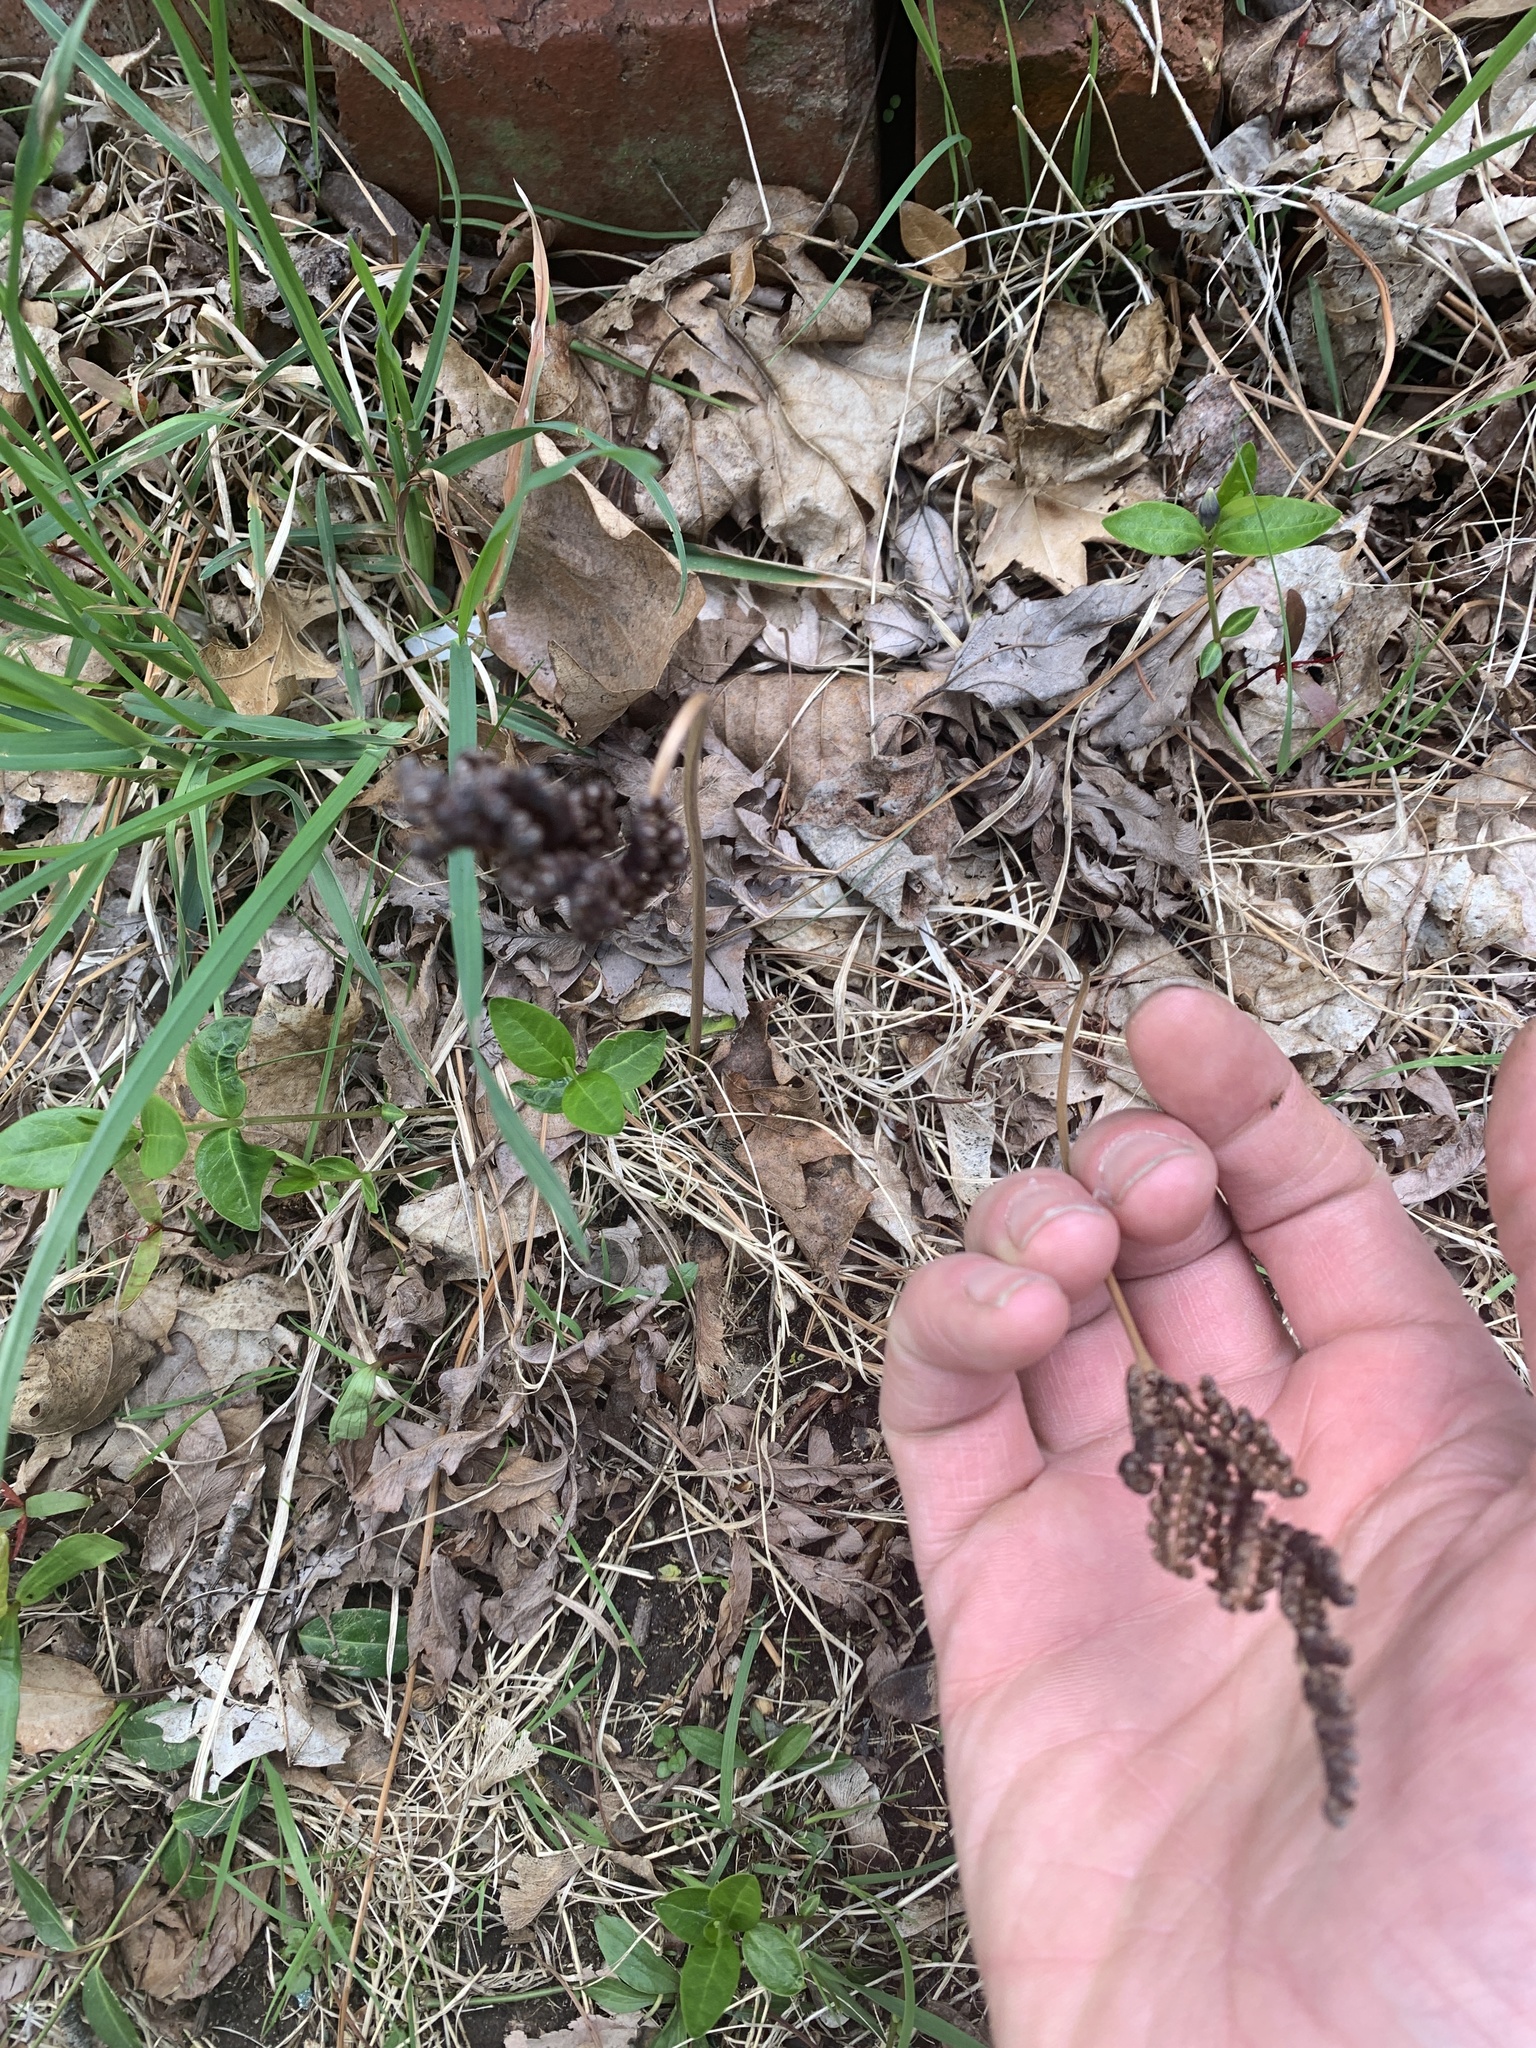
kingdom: Plantae
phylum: Tracheophyta
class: Polypodiopsida
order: Polypodiales
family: Onocleaceae
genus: Onoclea
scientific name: Onoclea sensibilis
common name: Sensitive fern
